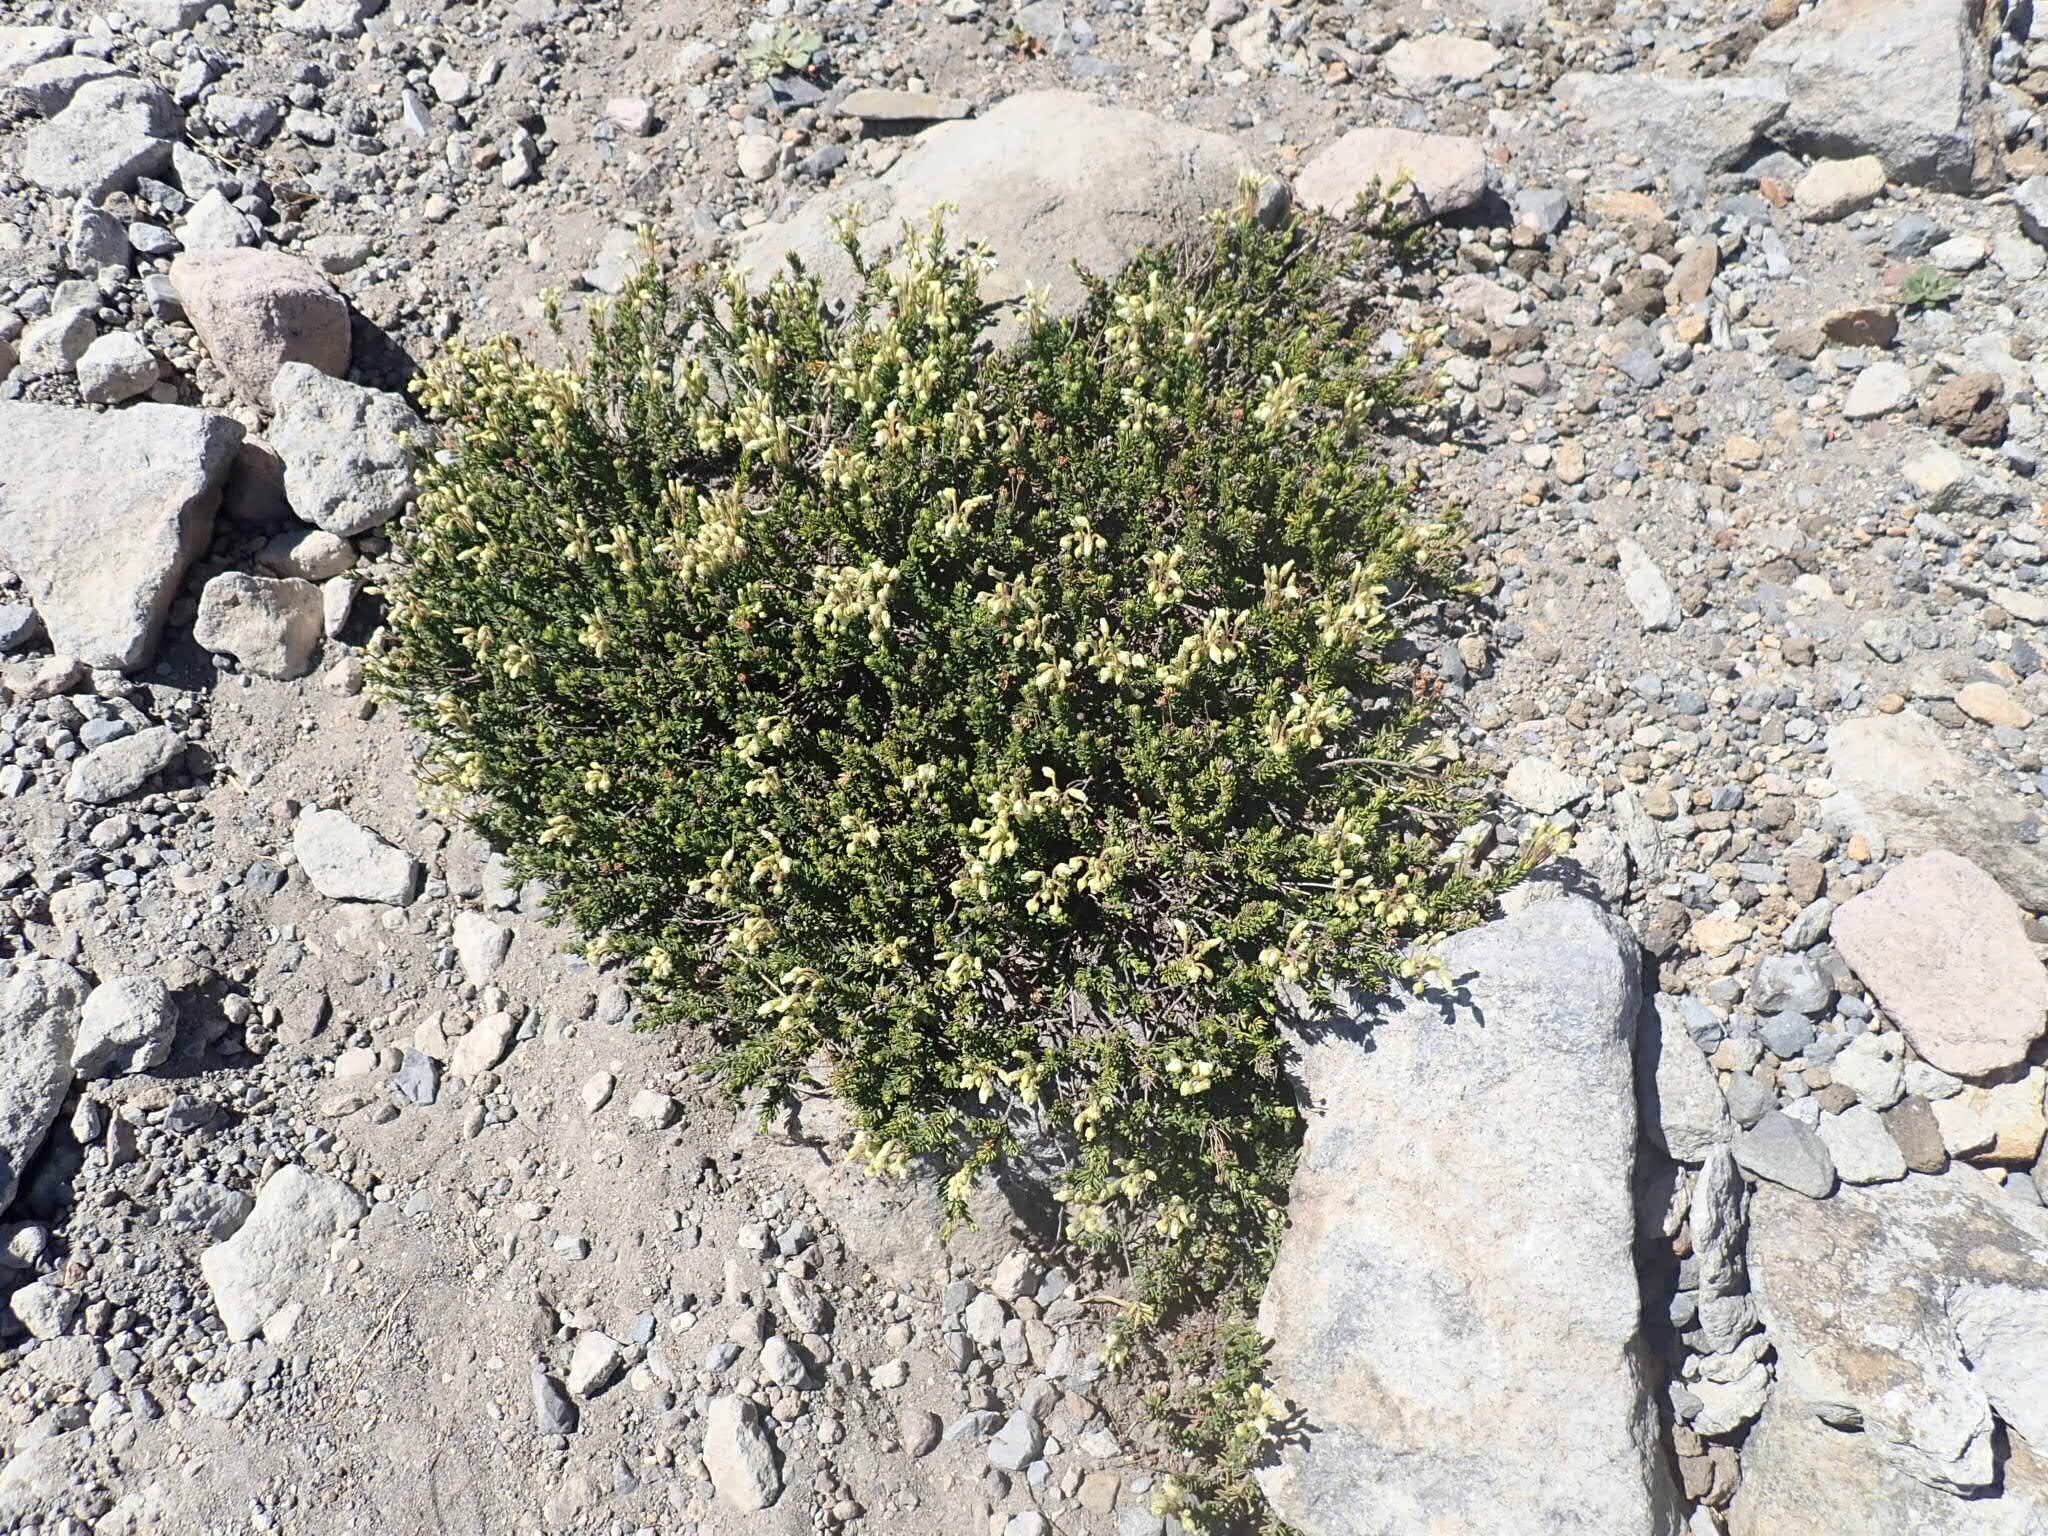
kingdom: Plantae
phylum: Tracheophyta
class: Magnoliopsida
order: Ericales
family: Ericaceae
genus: Phyllodoce
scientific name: Phyllodoce glanduliflora
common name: Cream mountain heather
